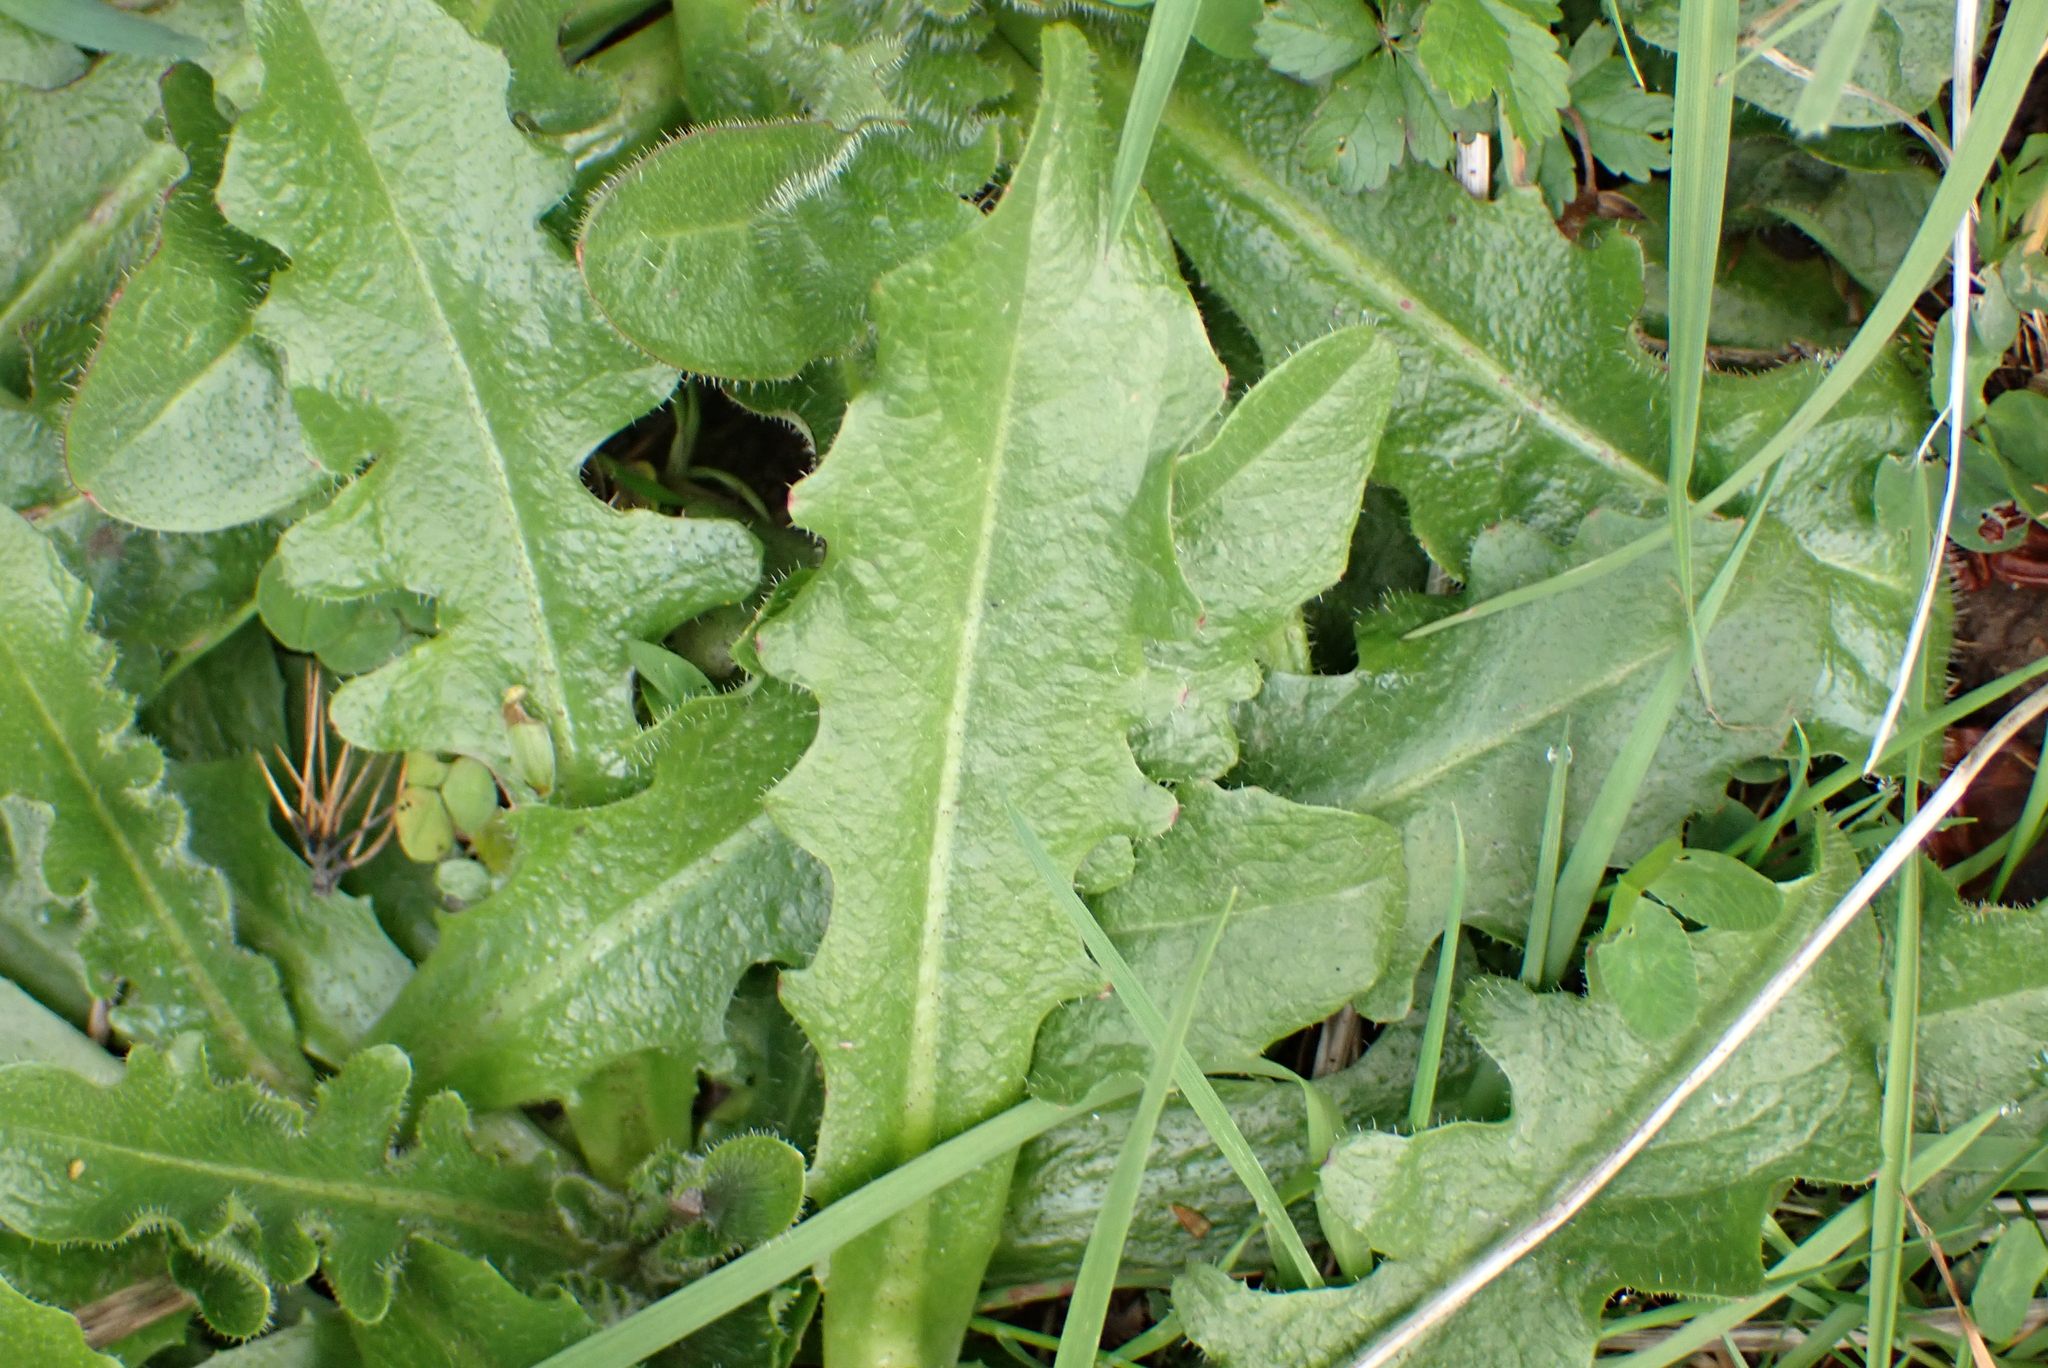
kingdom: Plantae
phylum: Tracheophyta
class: Magnoliopsida
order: Asterales
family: Asteraceae
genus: Hypochaeris
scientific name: Hypochaeris radicata
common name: Flatweed
